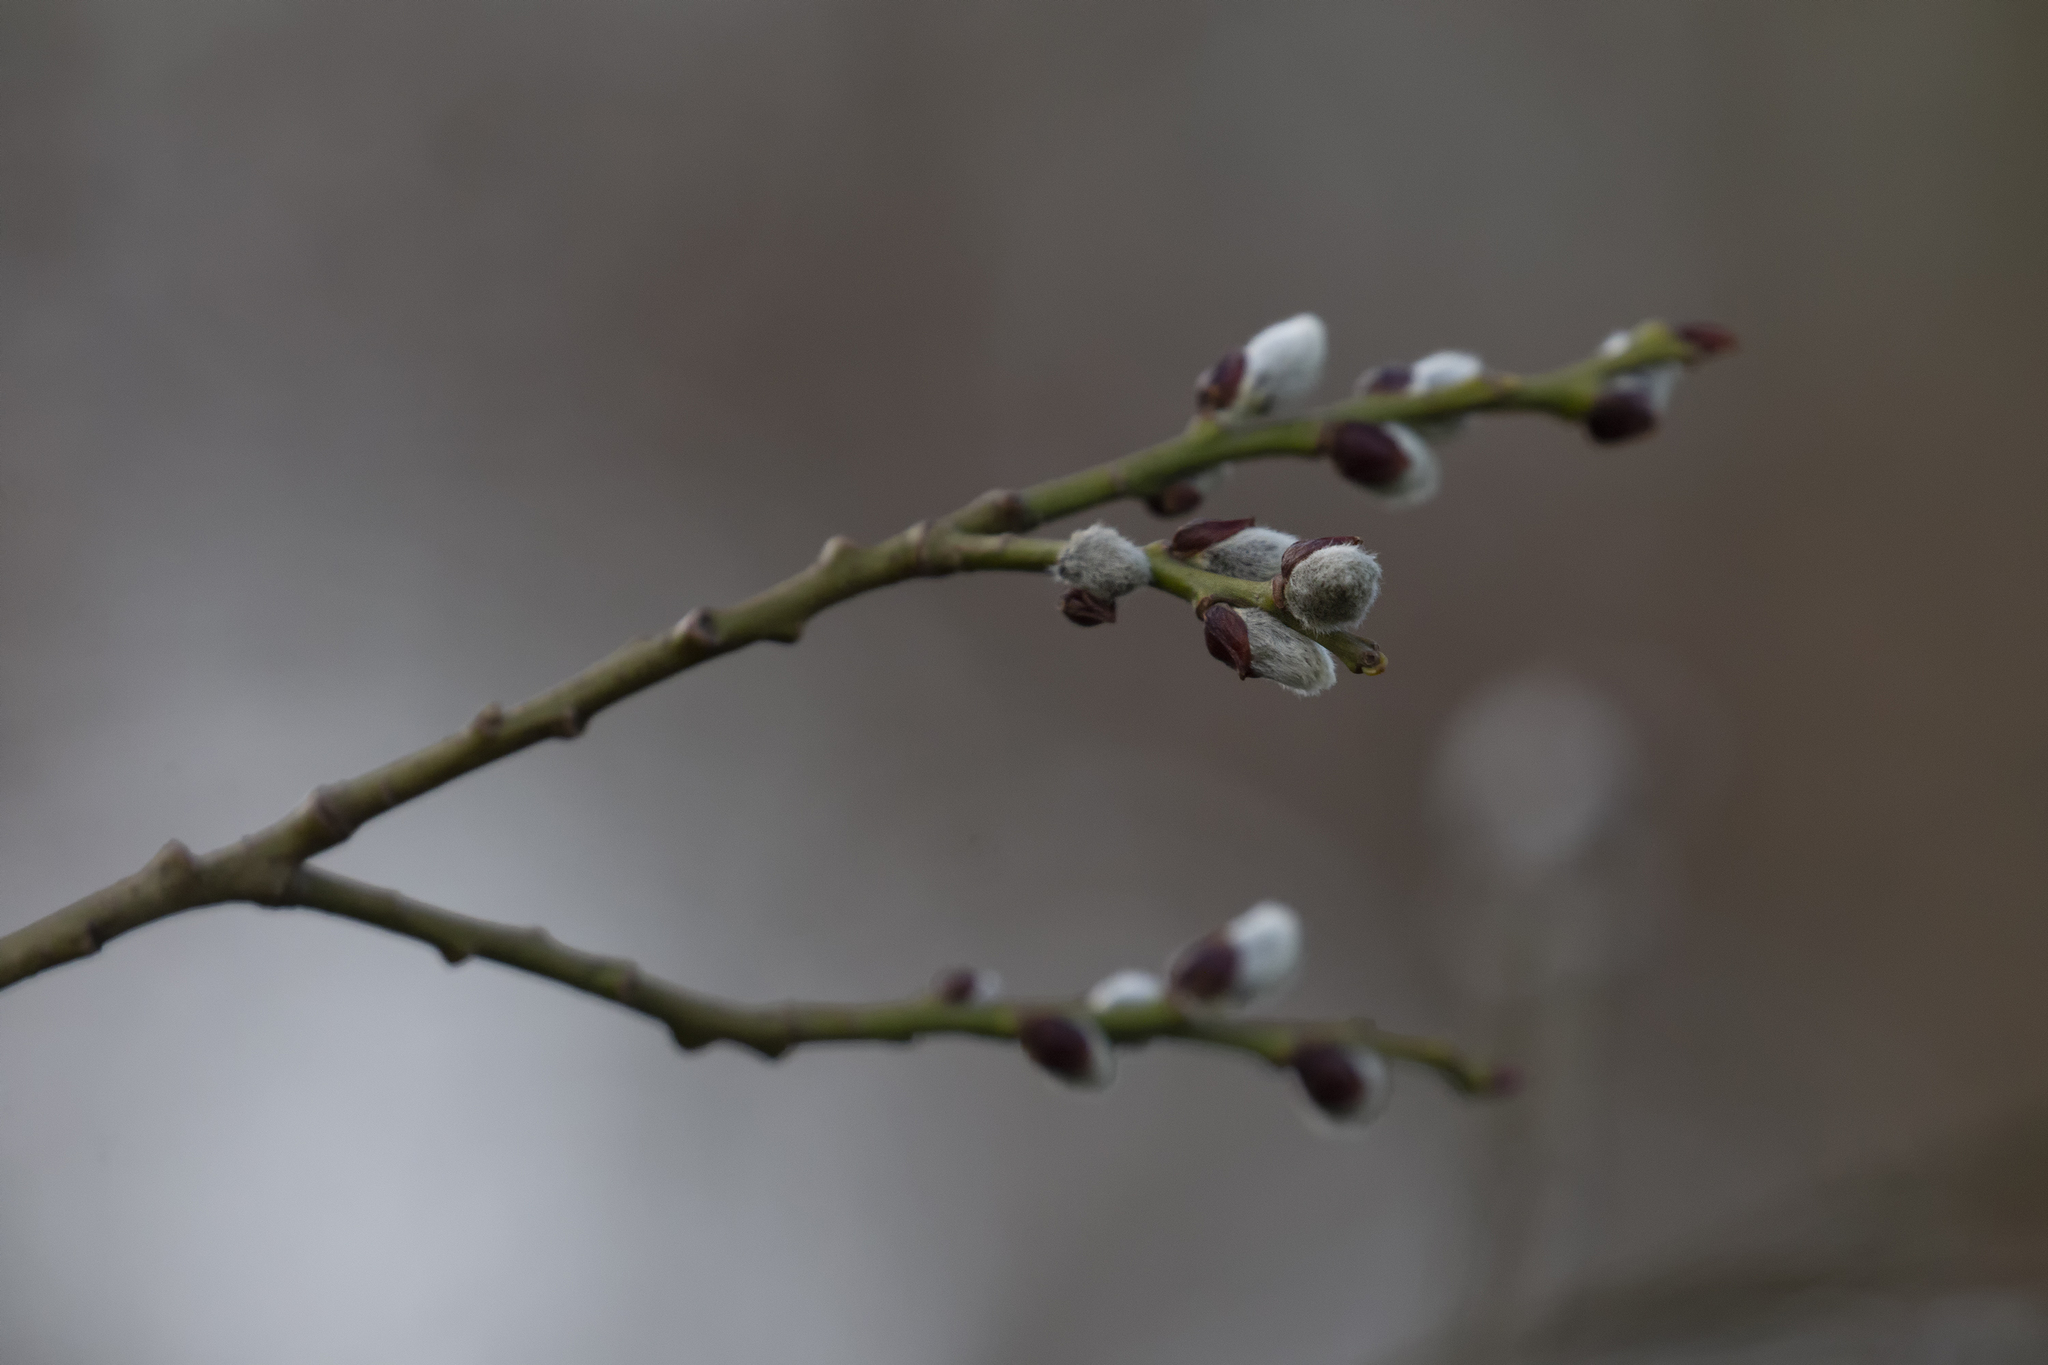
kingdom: Plantae
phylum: Tracheophyta
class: Magnoliopsida
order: Malpighiales
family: Salicaceae
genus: Salix
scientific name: Salix caprea
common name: Goat willow
